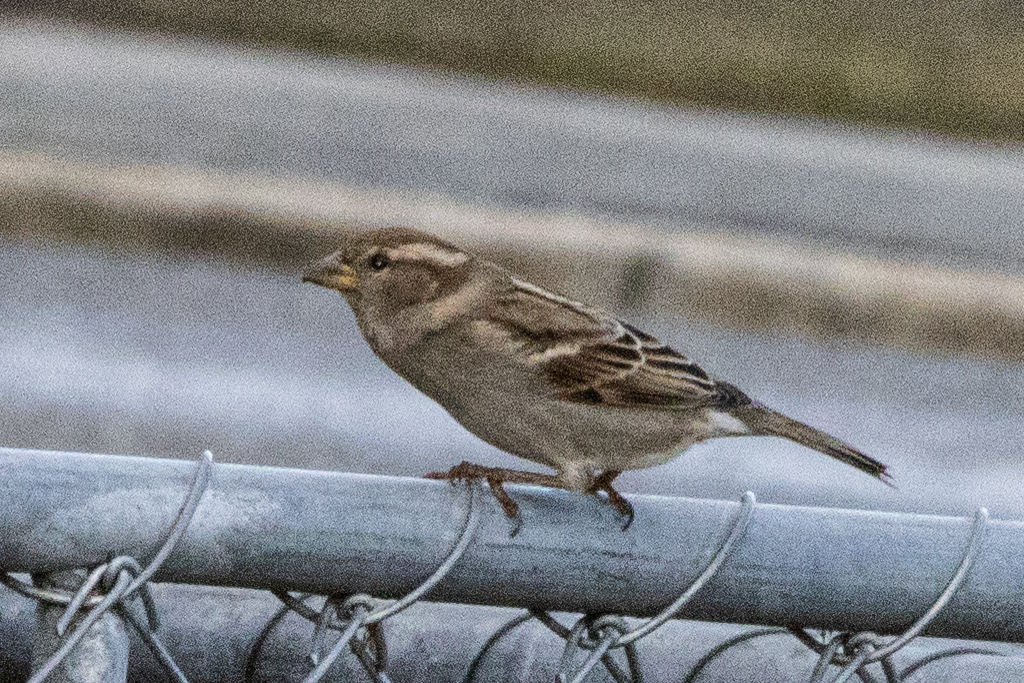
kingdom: Animalia
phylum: Chordata
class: Aves
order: Passeriformes
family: Passeridae
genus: Passer
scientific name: Passer domesticus
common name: House sparrow
